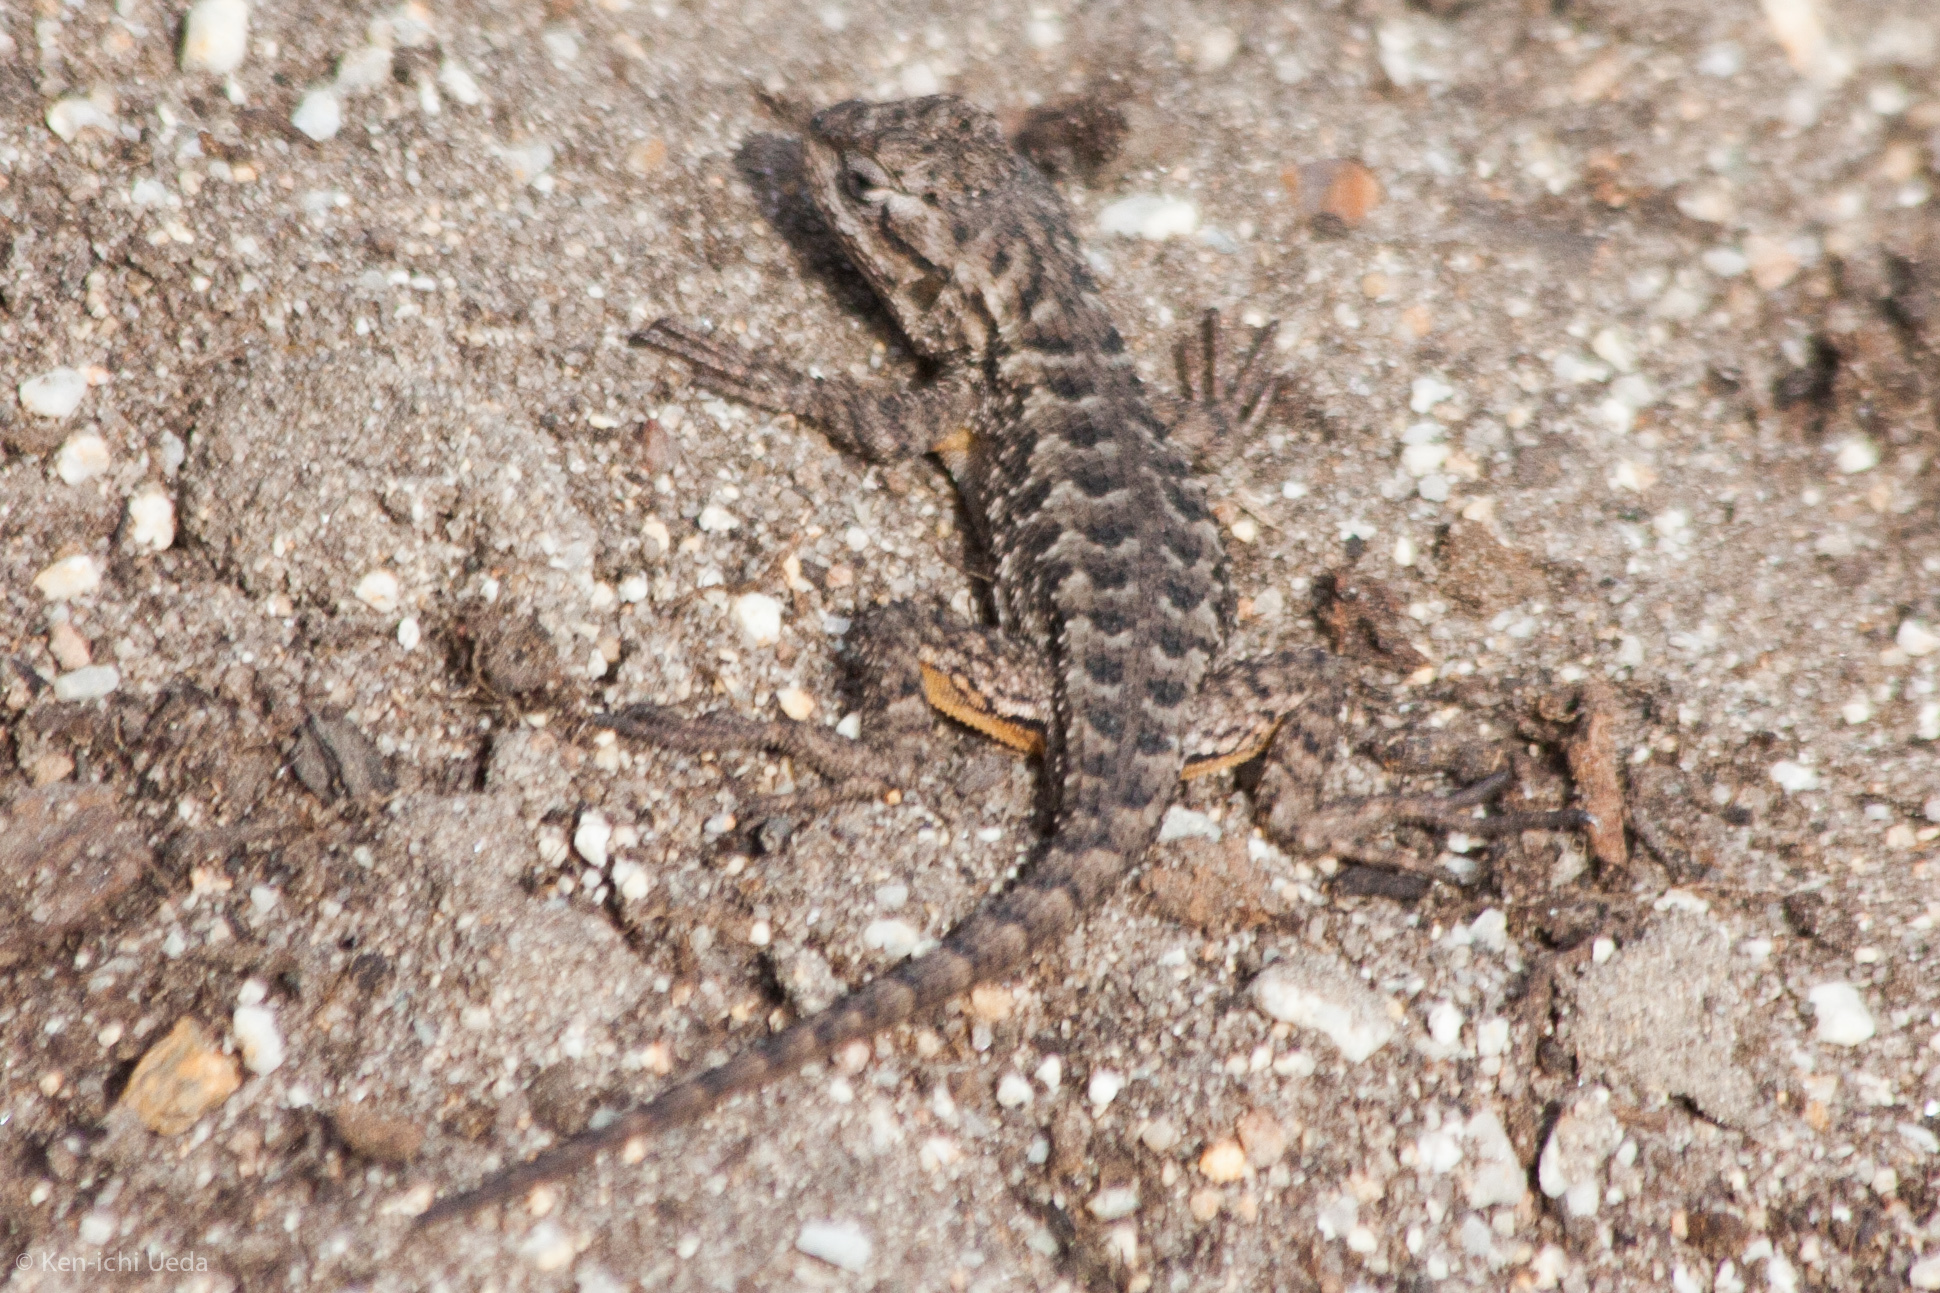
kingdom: Animalia
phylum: Chordata
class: Squamata
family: Phrynosomatidae
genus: Sceloporus
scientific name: Sceloporus occidentalis
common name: Western fence lizard
